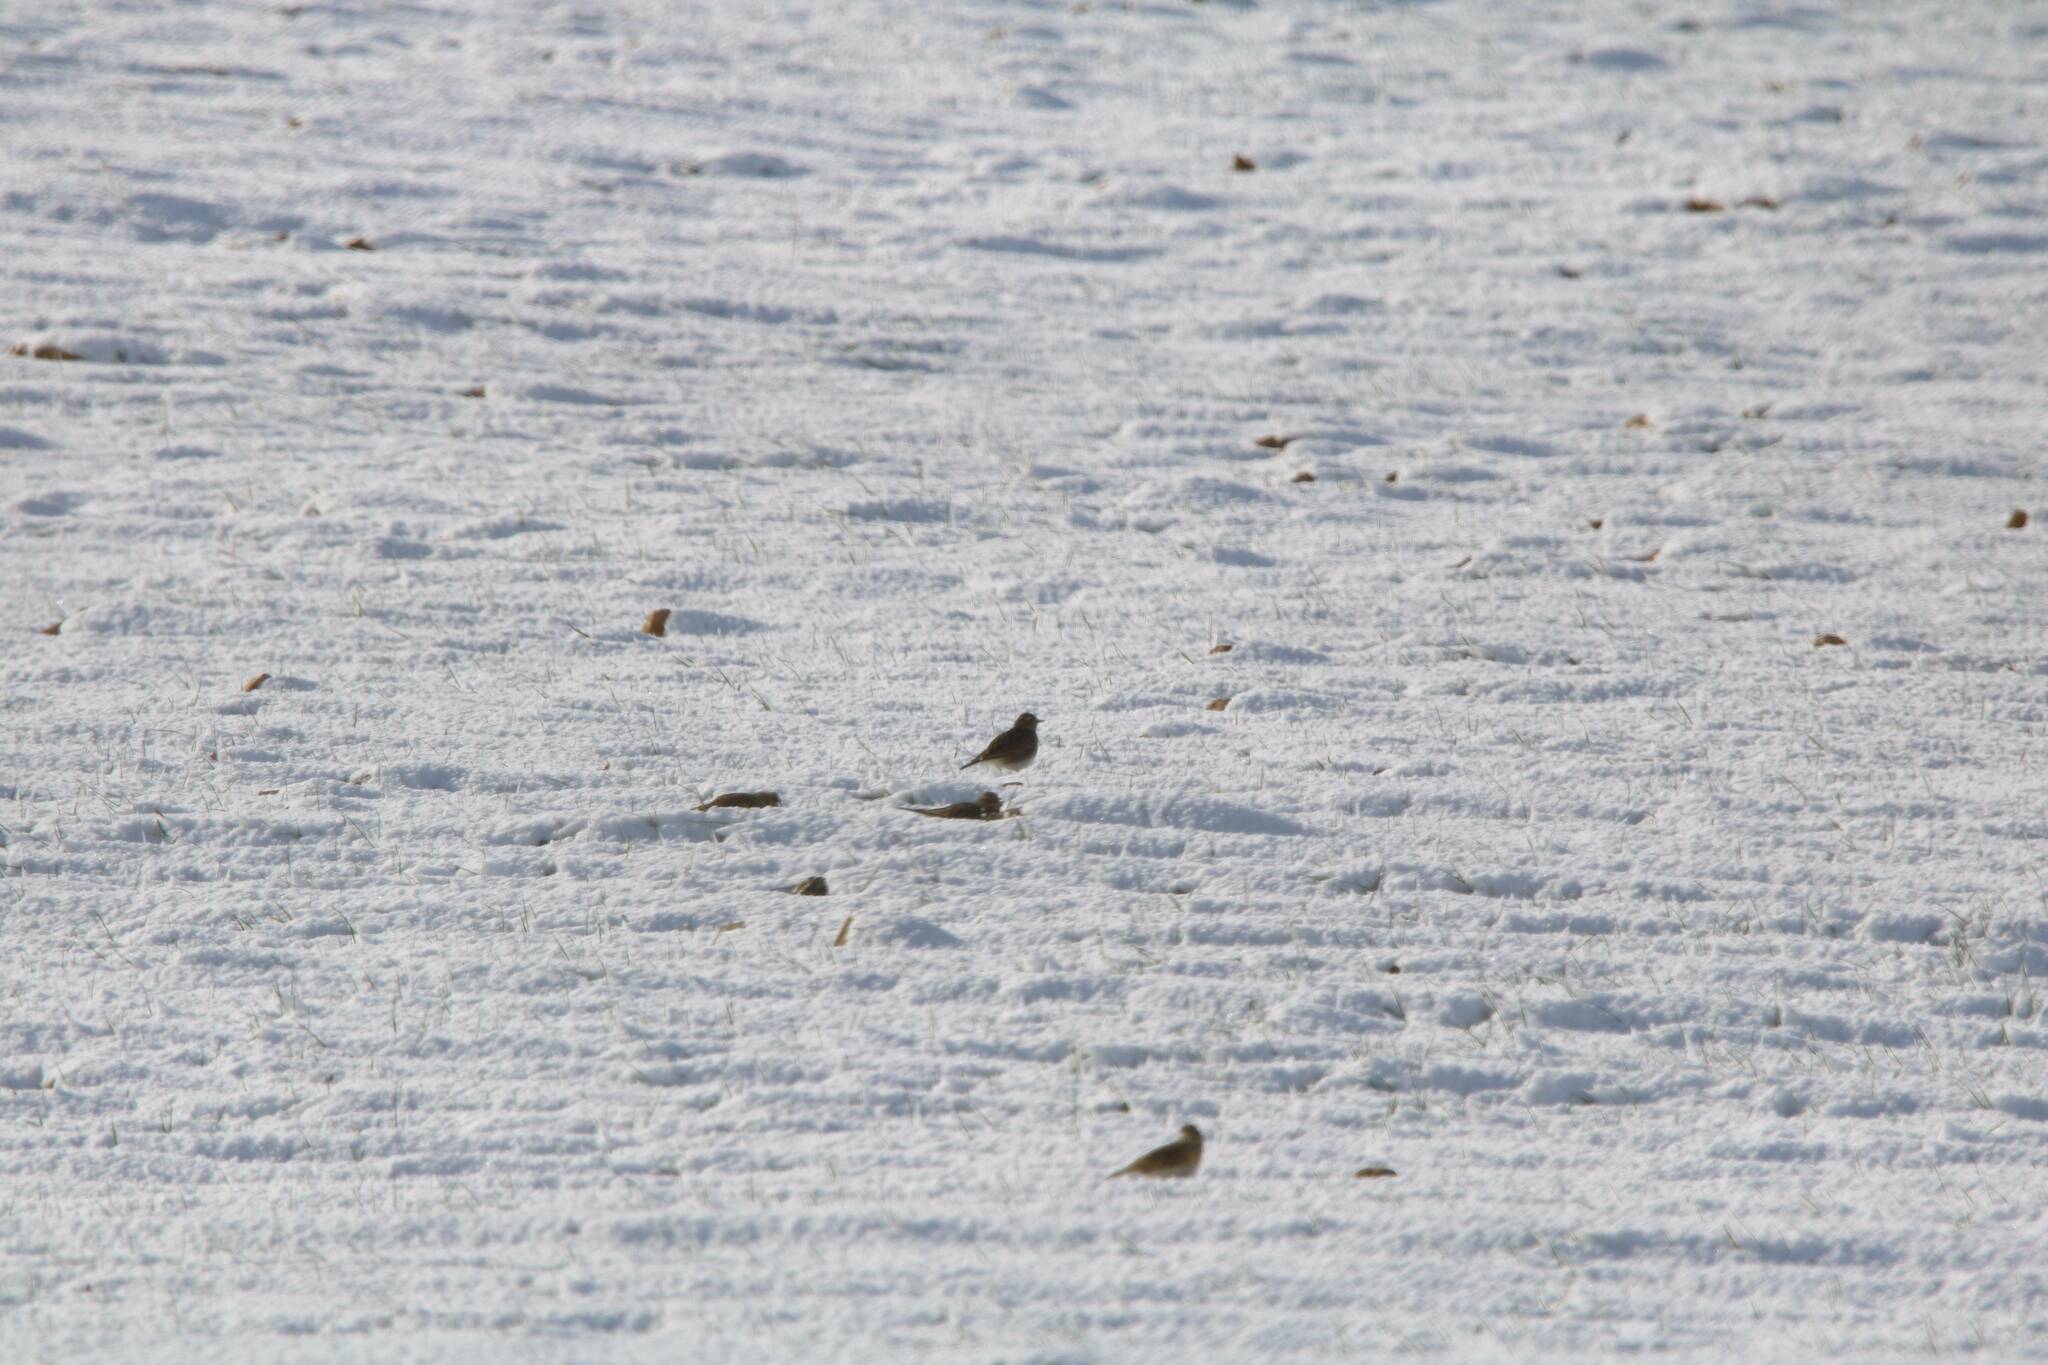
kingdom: Animalia
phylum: Chordata
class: Aves
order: Passeriformes
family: Alaudidae
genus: Alauda
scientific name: Alauda arvensis
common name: Eurasian skylark
